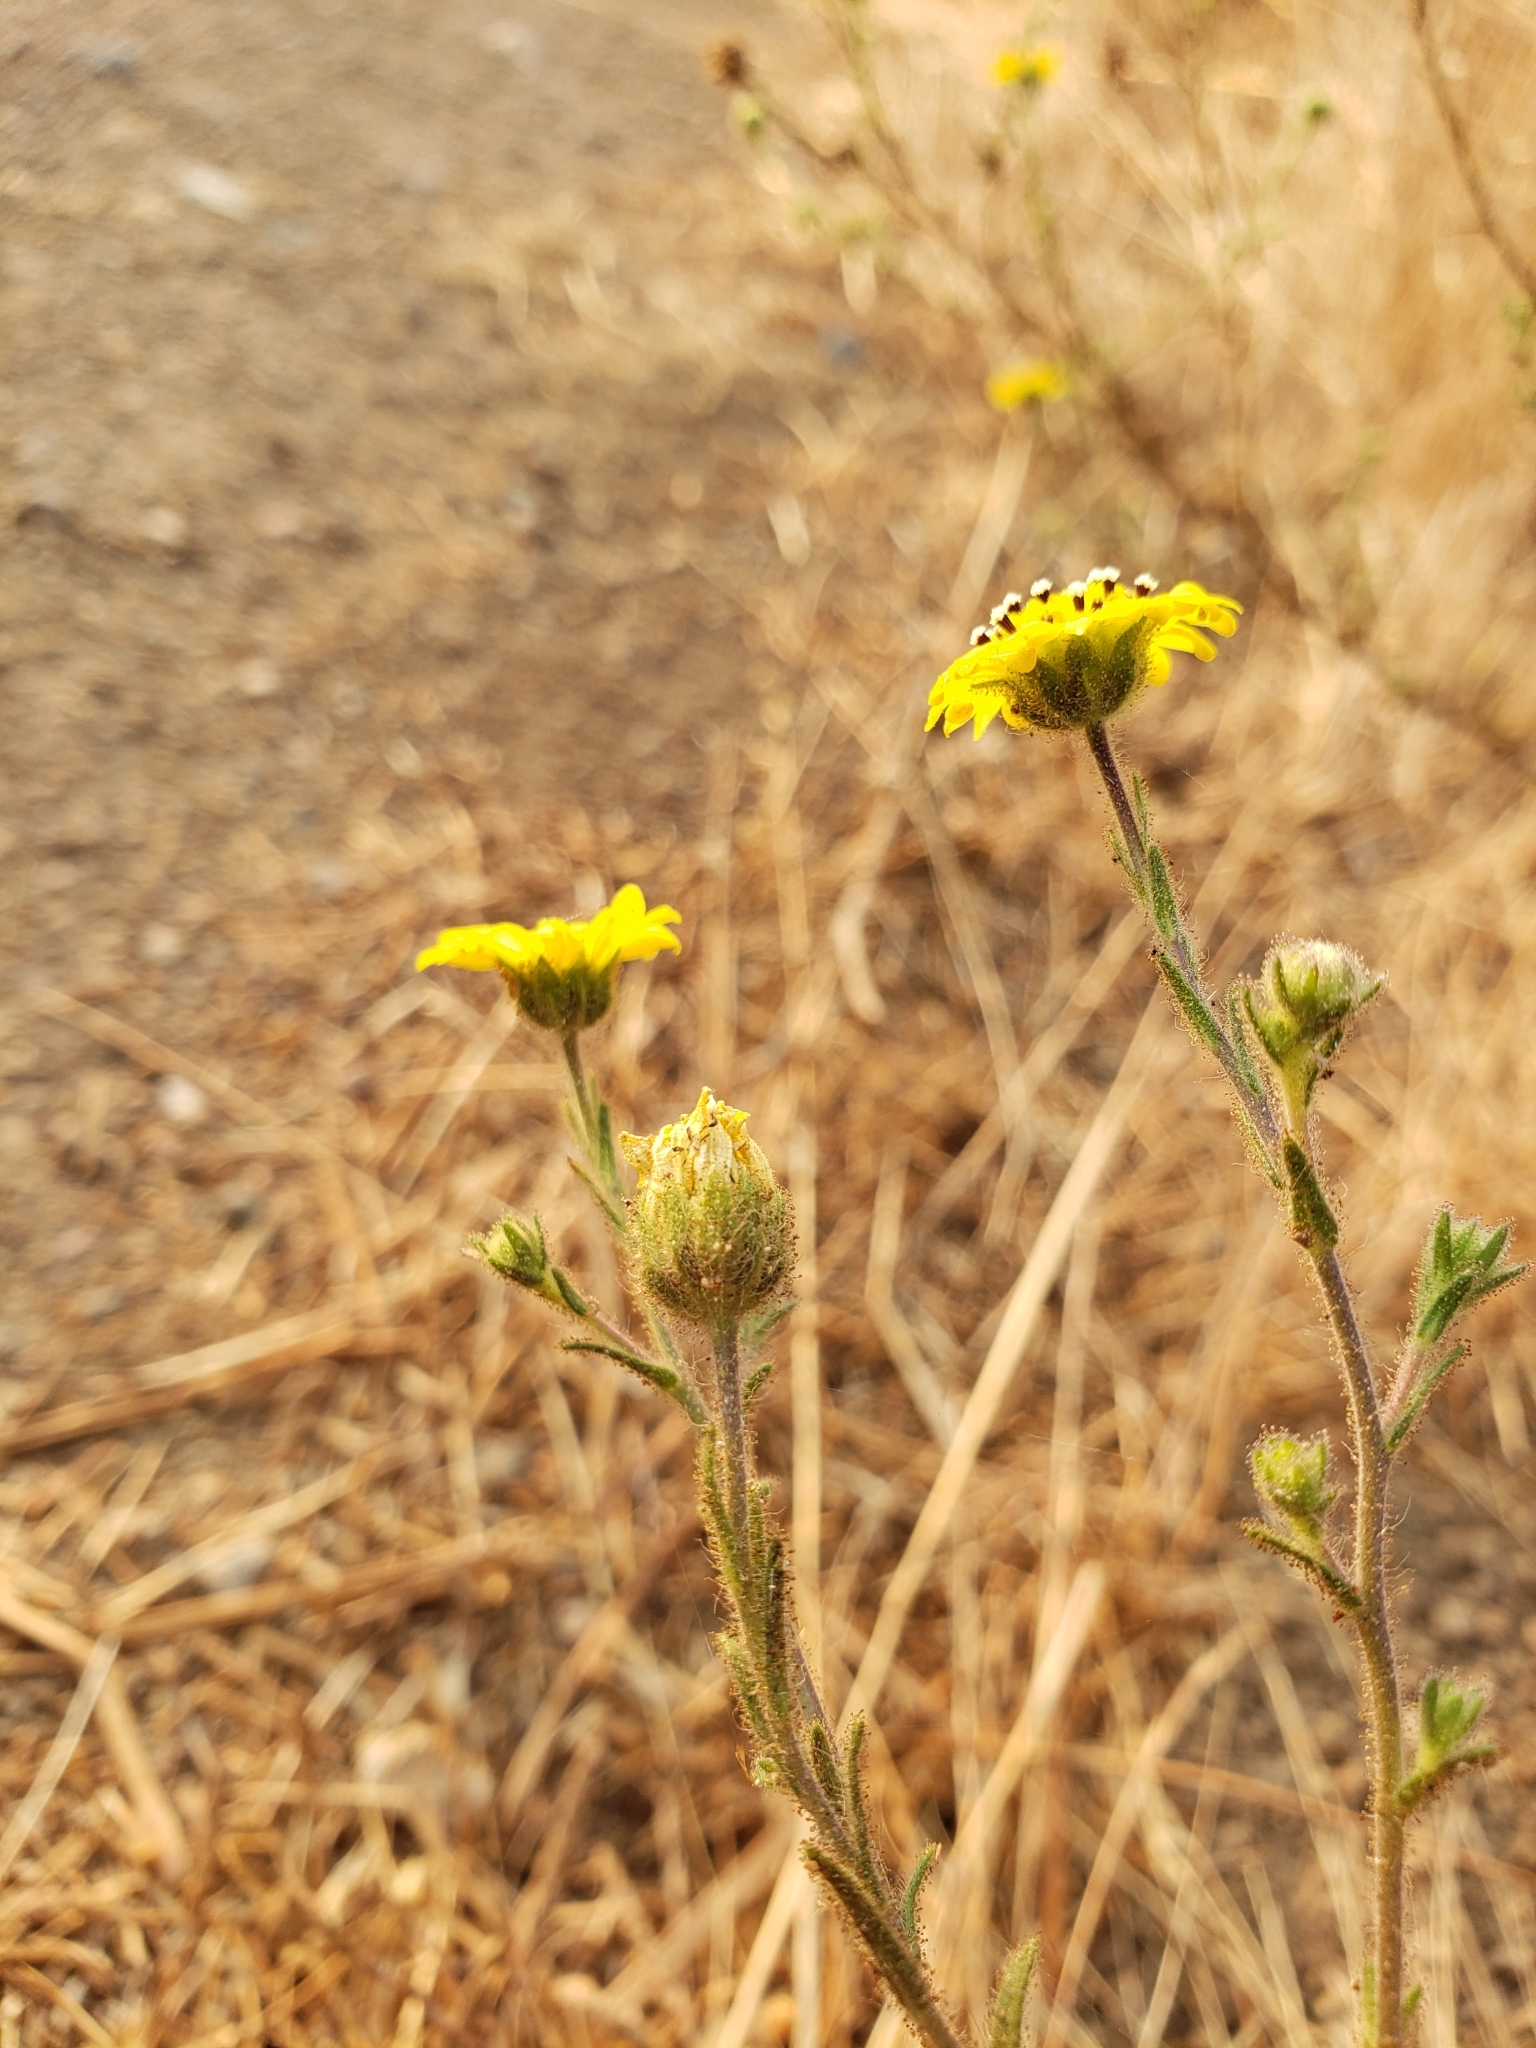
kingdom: Plantae
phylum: Tracheophyta
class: Magnoliopsida
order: Asterales
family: Asteraceae
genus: Hemizonia
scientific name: Hemizonia congesta
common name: Hayfield tarweed
